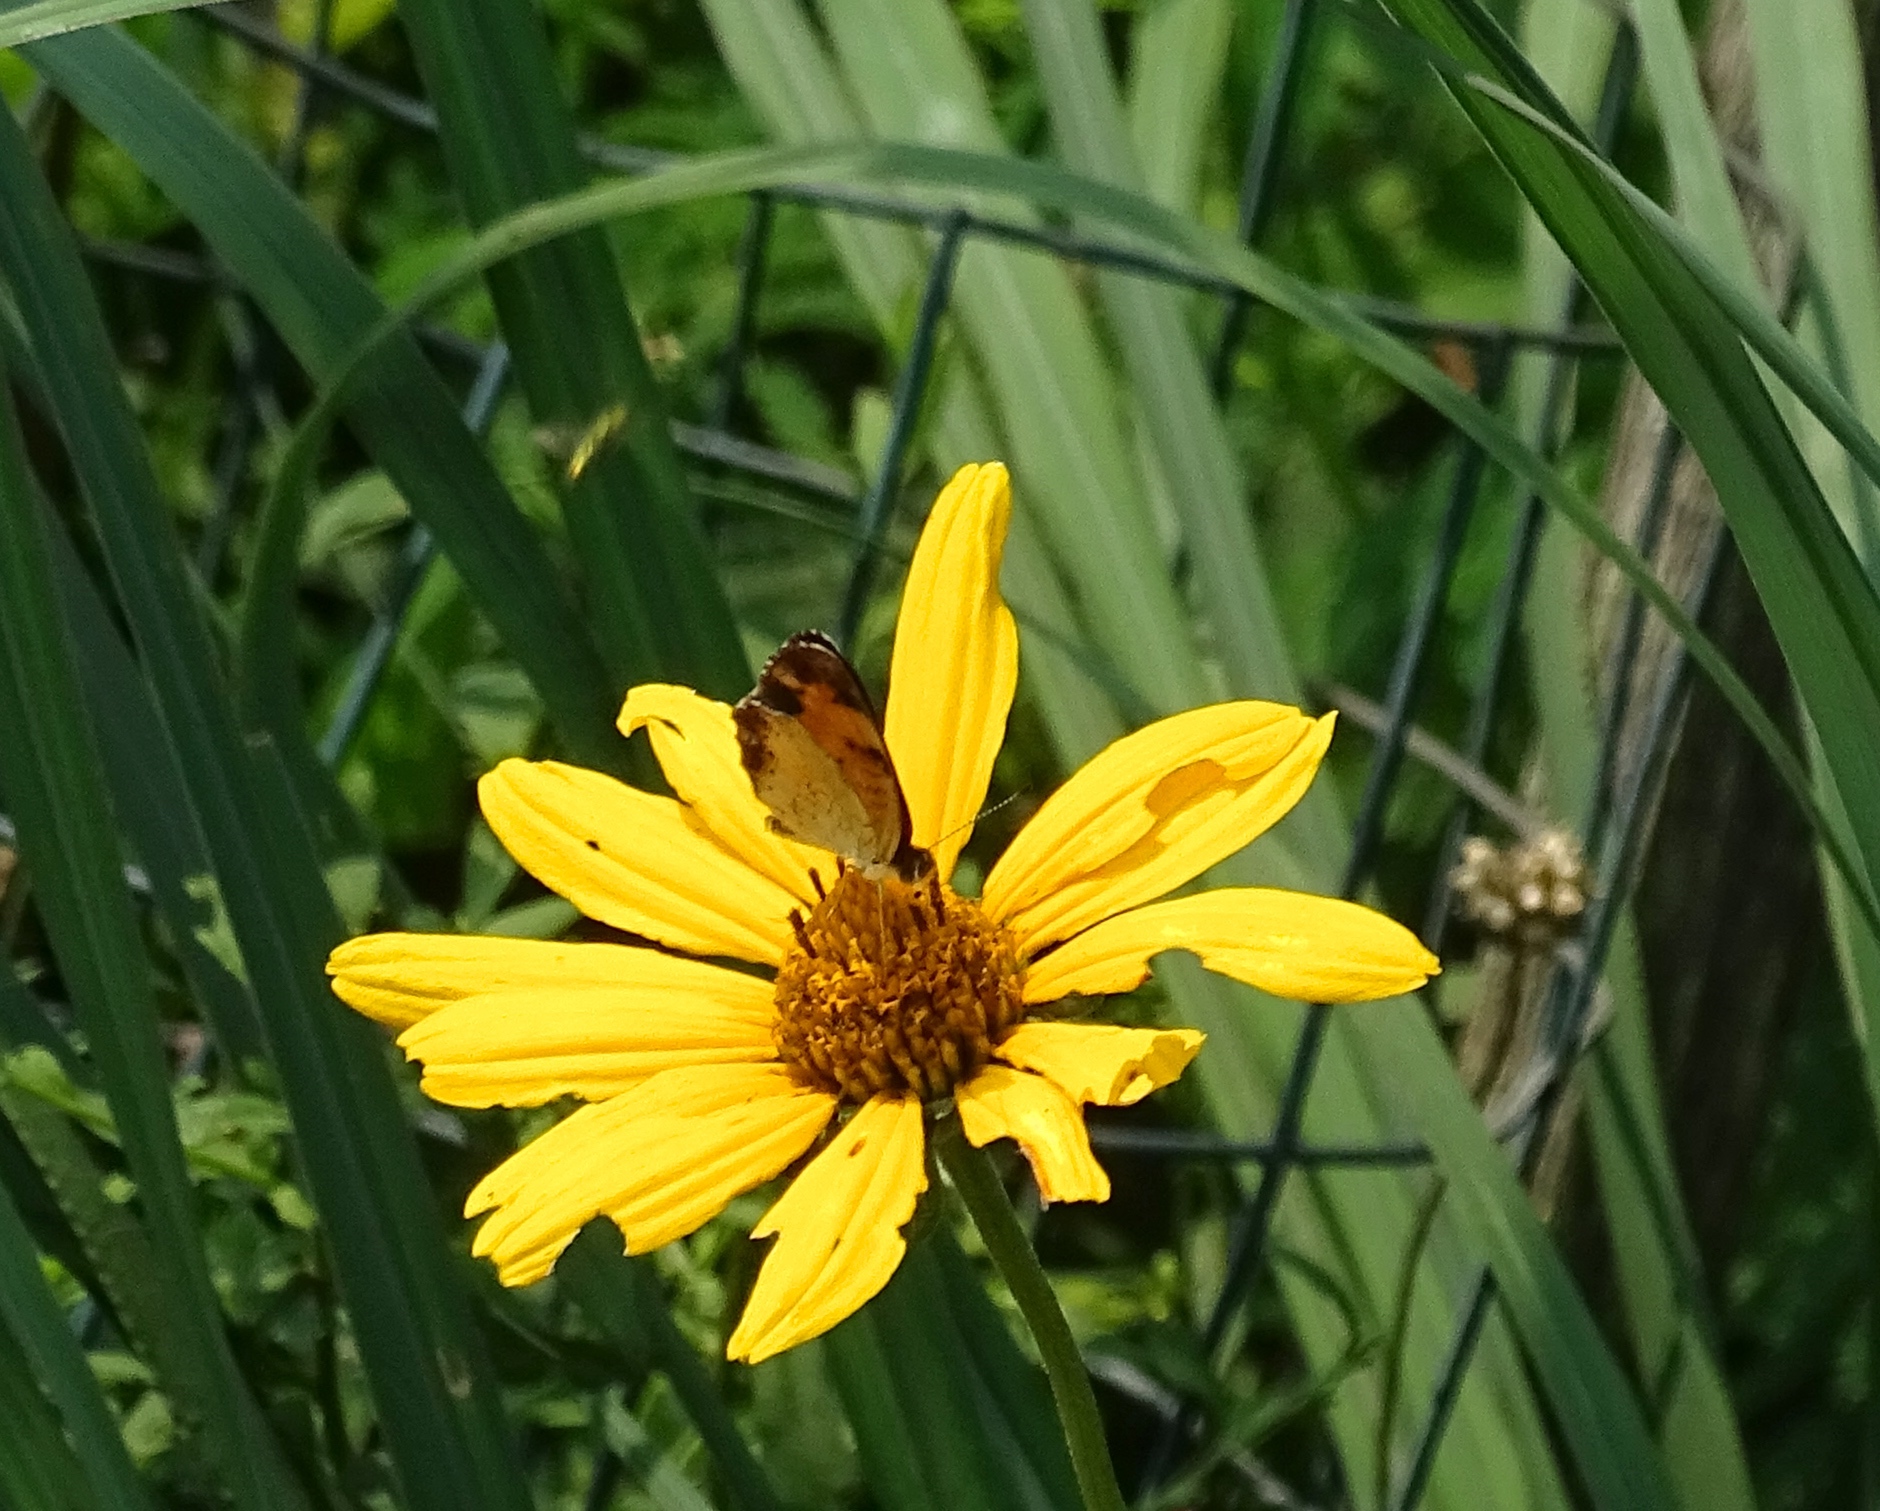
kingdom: Animalia
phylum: Arthropoda
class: Insecta
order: Lepidoptera
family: Nymphalidae
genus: Phyciodes
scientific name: Phyciodes tharos
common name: Pearl crescent
